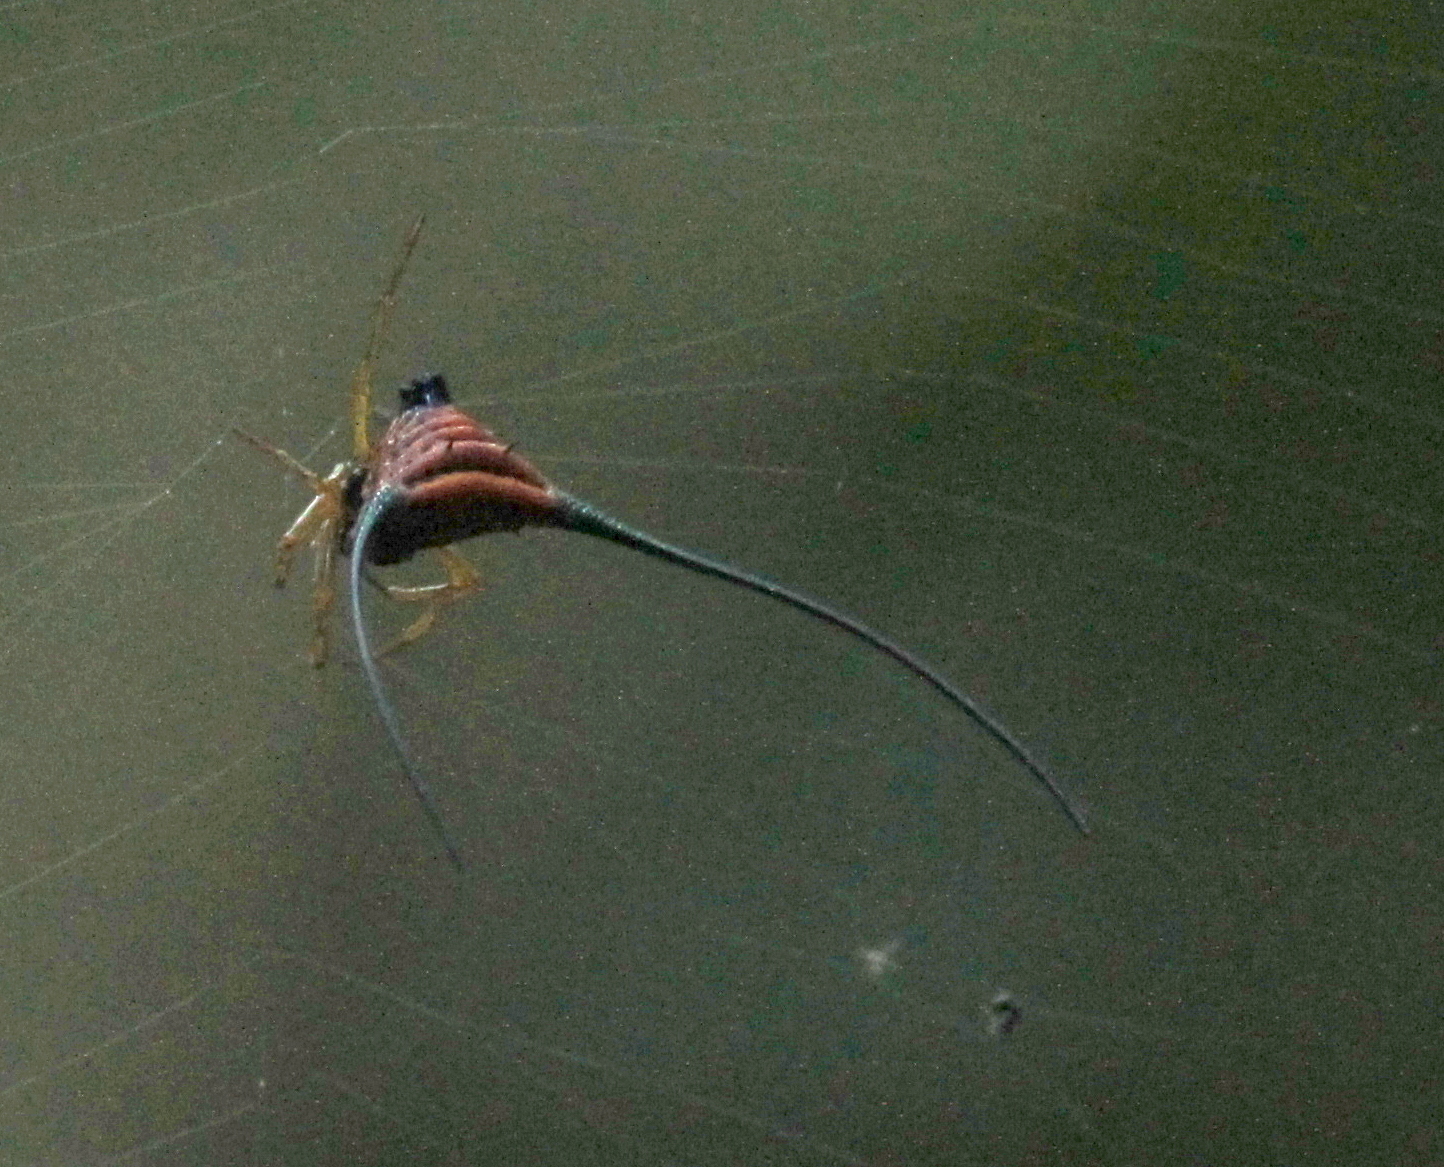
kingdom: Animalia
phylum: Arthropoda
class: Arachnida
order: Araneae
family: Araneidae
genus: Macracantha
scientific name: Macracantha arcuata
